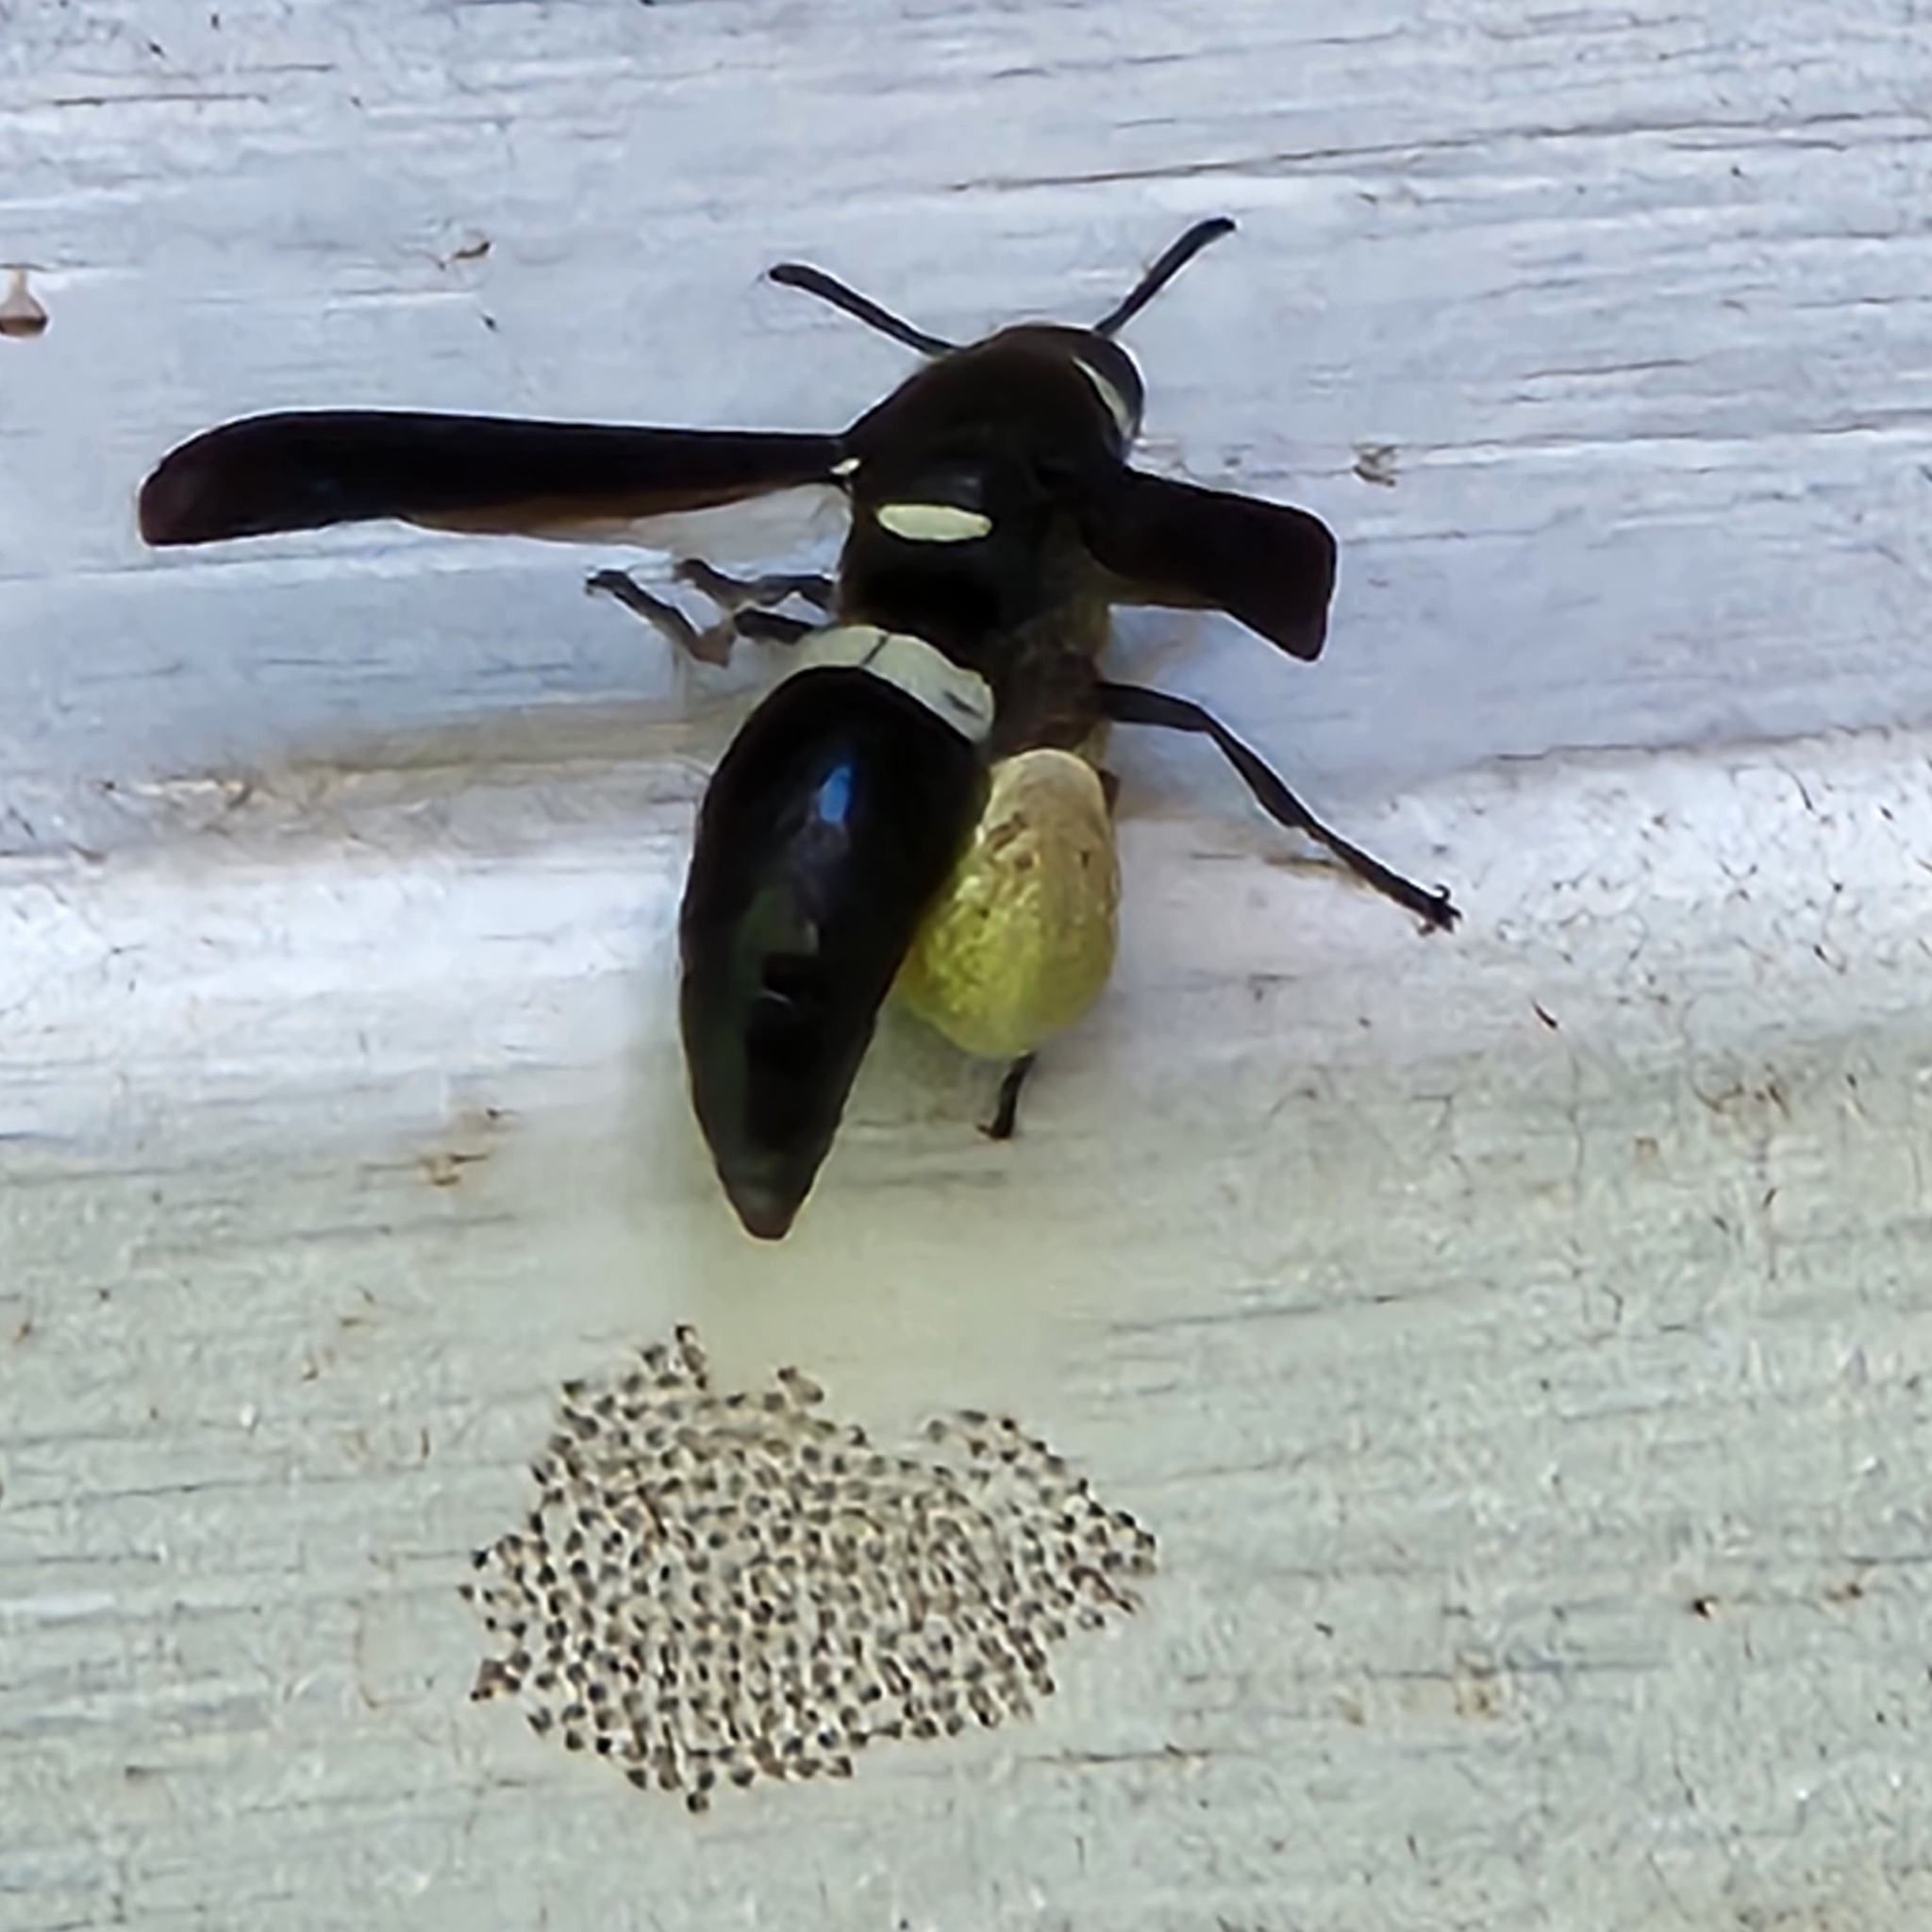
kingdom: Animalia
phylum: Arthropoda
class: Insecta
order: Hymenoptera
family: Eumenidae
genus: Monobia
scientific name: Monobia quadridens
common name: Four-toothed mason wasp
